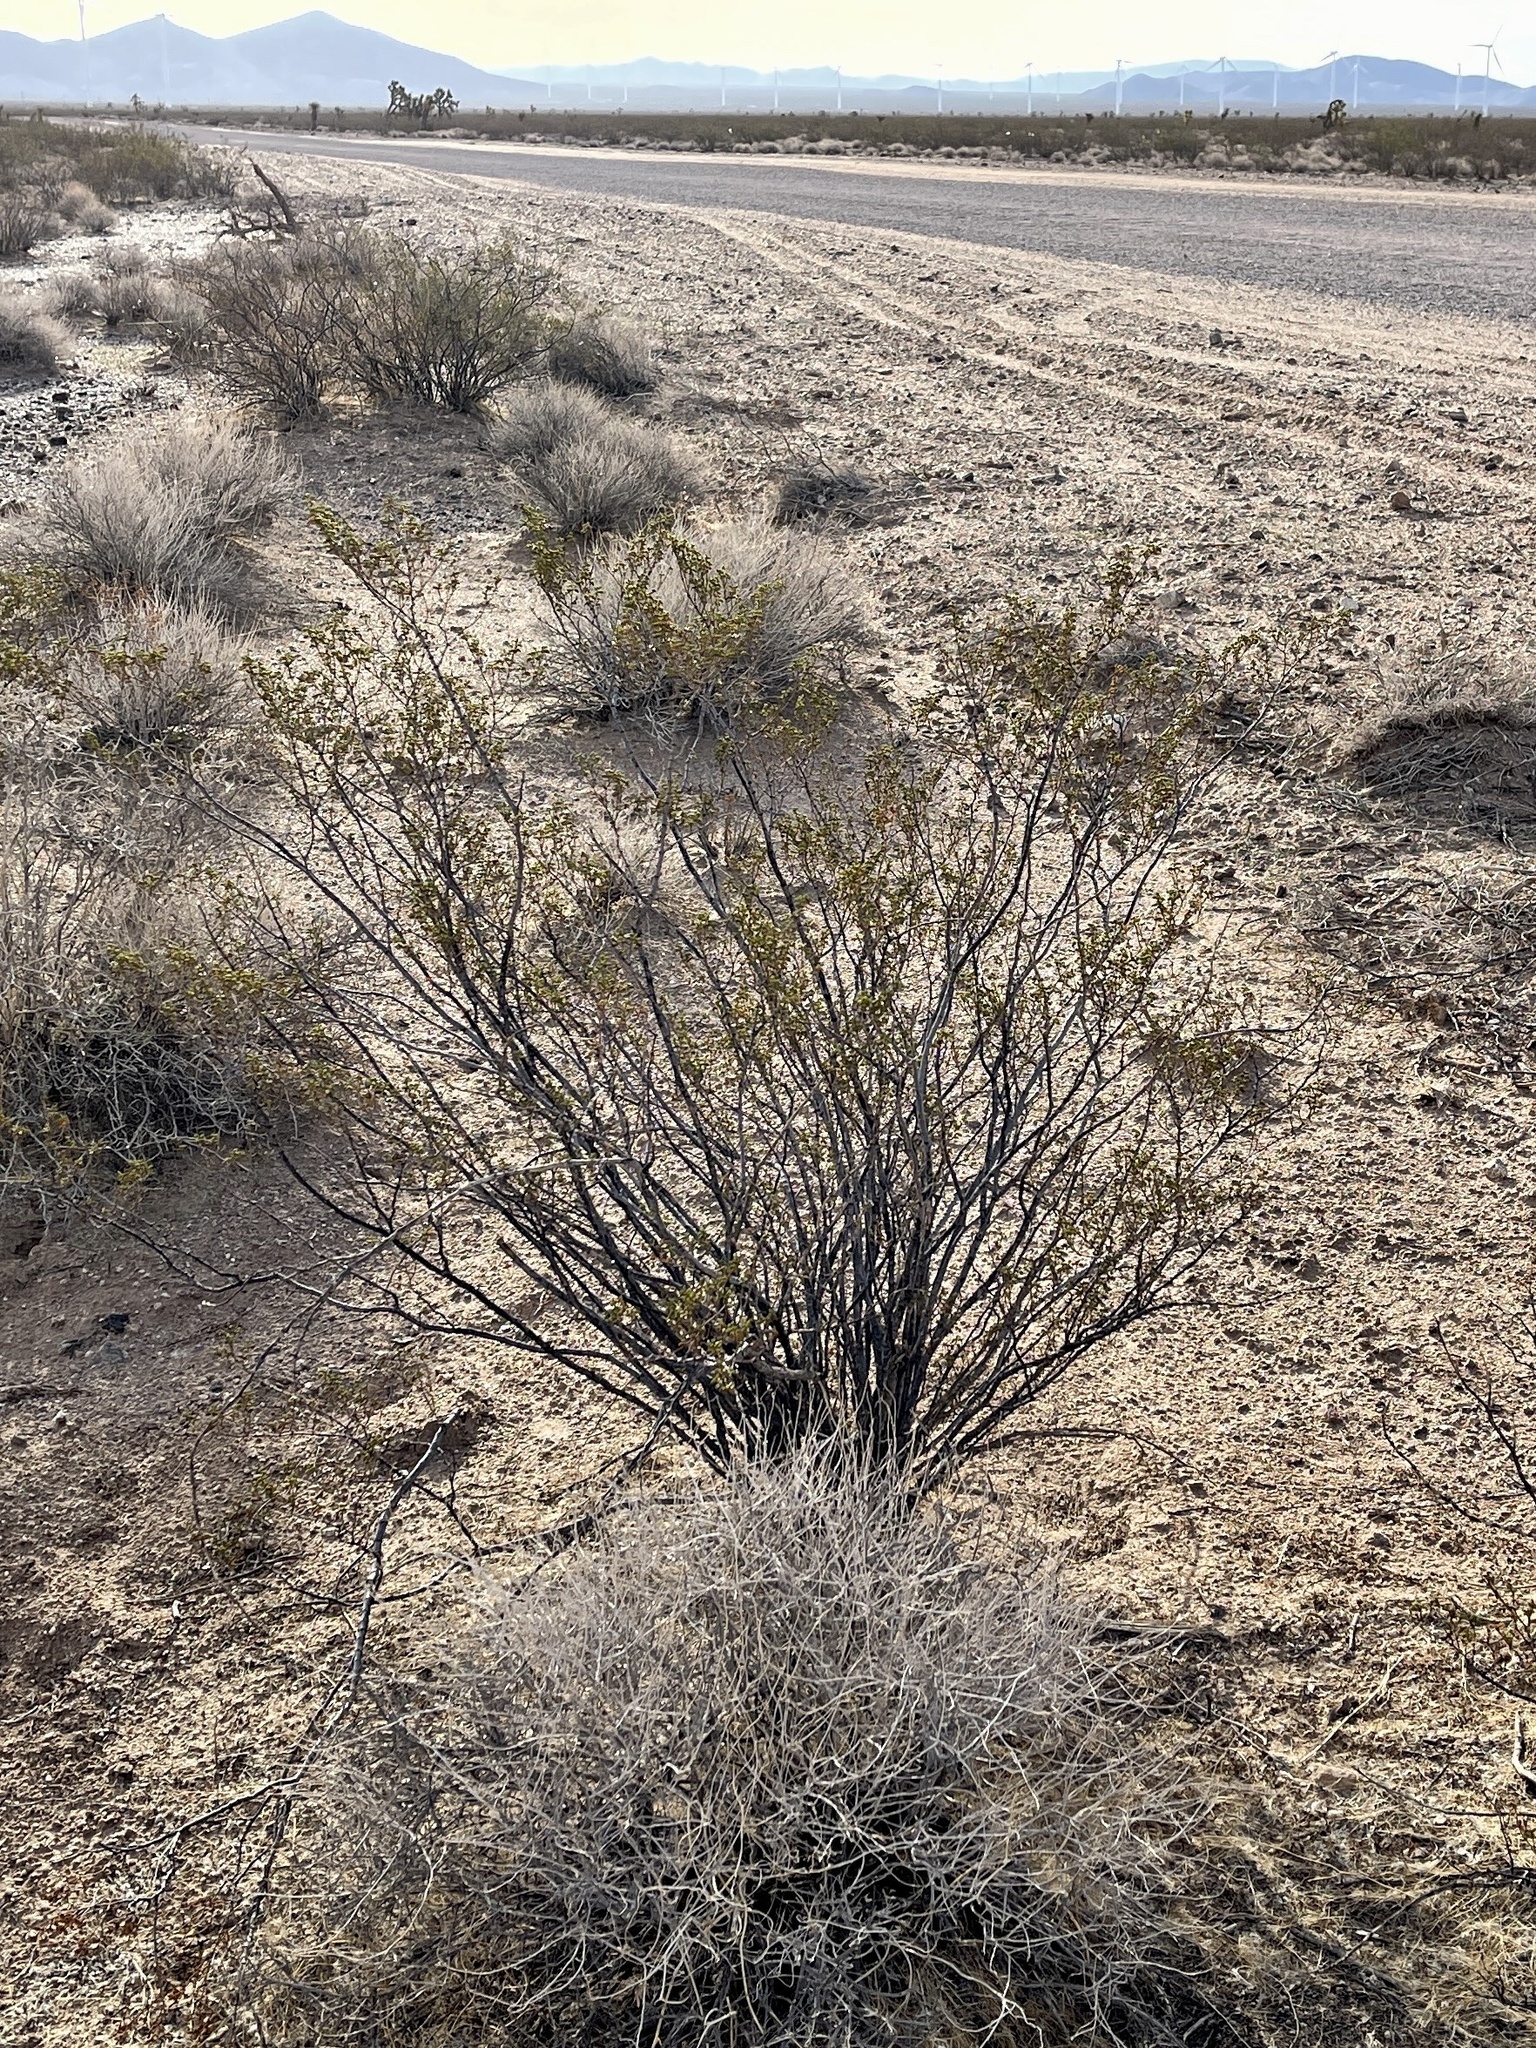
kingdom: Plantae
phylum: Tracheophyta
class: Magnoliopsida
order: Zygophyllales
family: Zygophyllaceae
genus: Larrea
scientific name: Larrea tridentata
